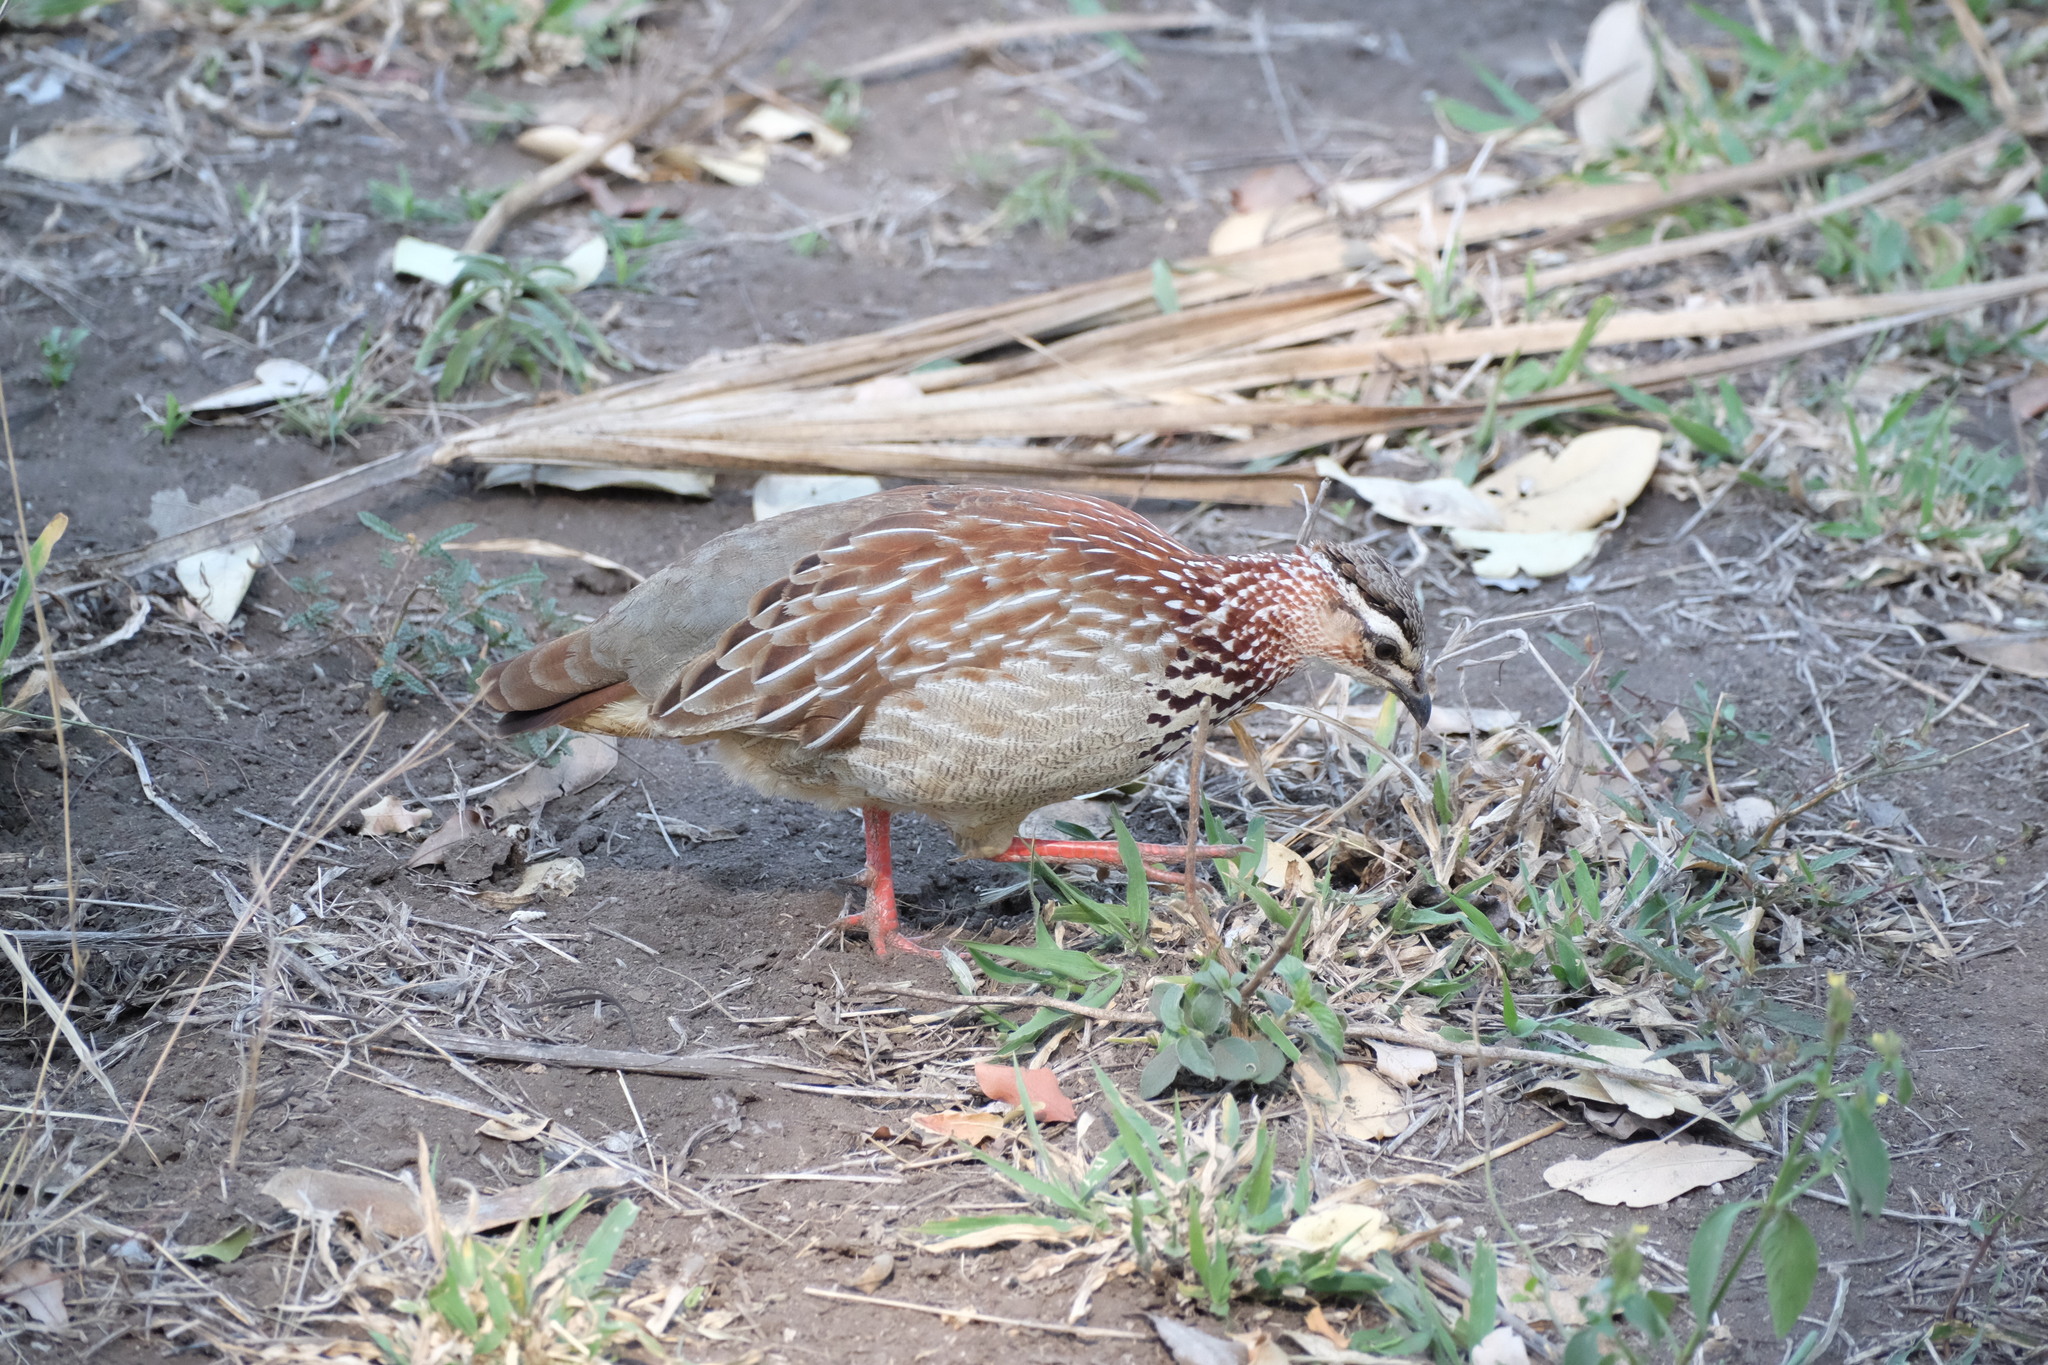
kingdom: Animalia
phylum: Chordata
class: Aves
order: Galliformes
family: Phasianidae
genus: Ortygornis
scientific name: Ortygornis sephaena
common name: Crested francolin
